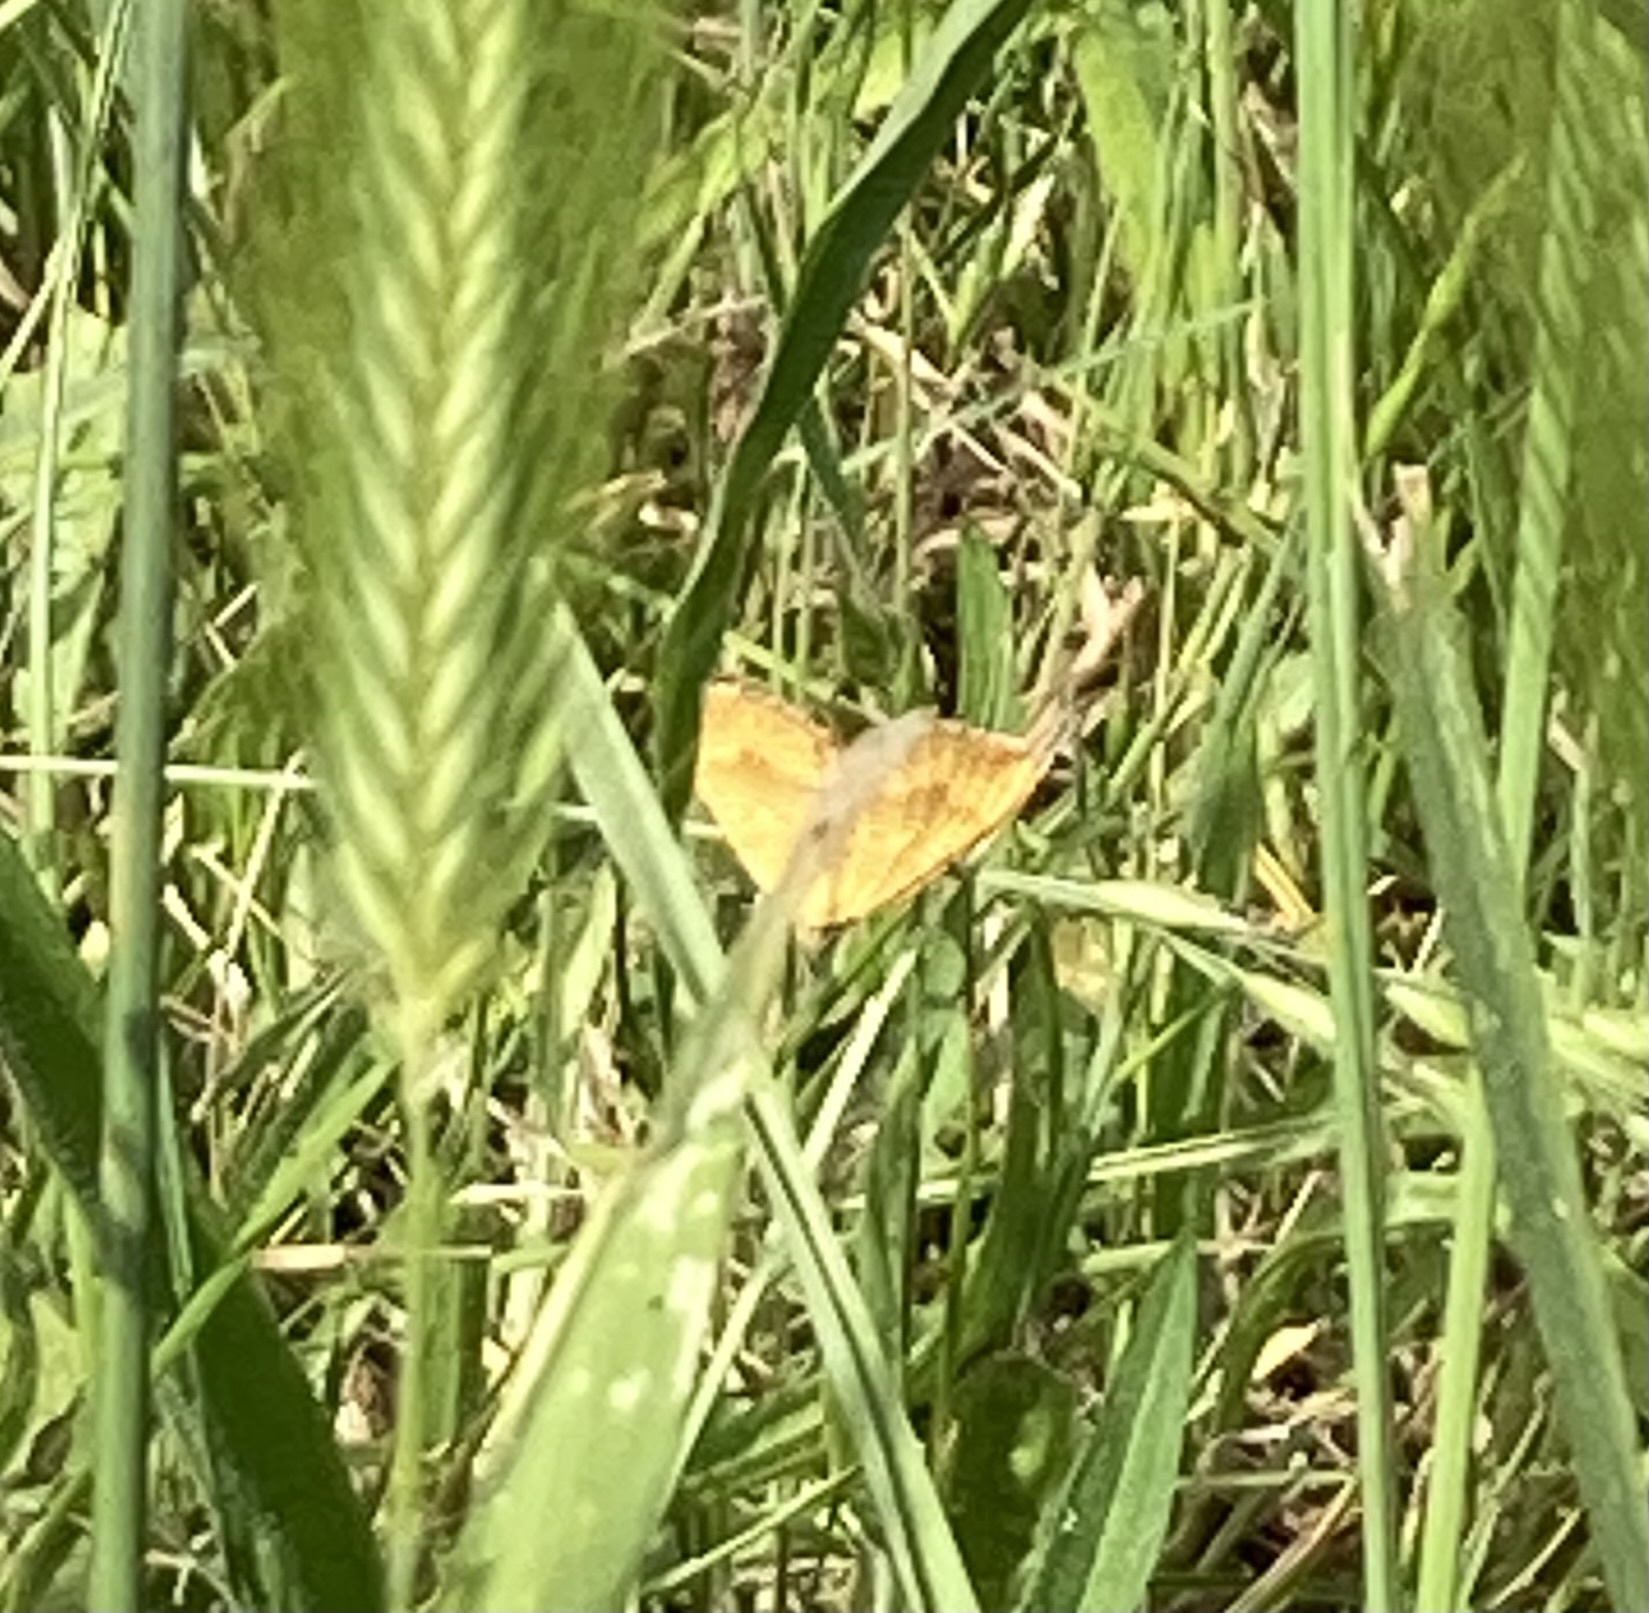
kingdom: Animalia
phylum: Arthropoda
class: Insecta
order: Lepidoptera
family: Geometridae
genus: Camptogramma
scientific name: Camptogramma bilineata
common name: Yellow shell
